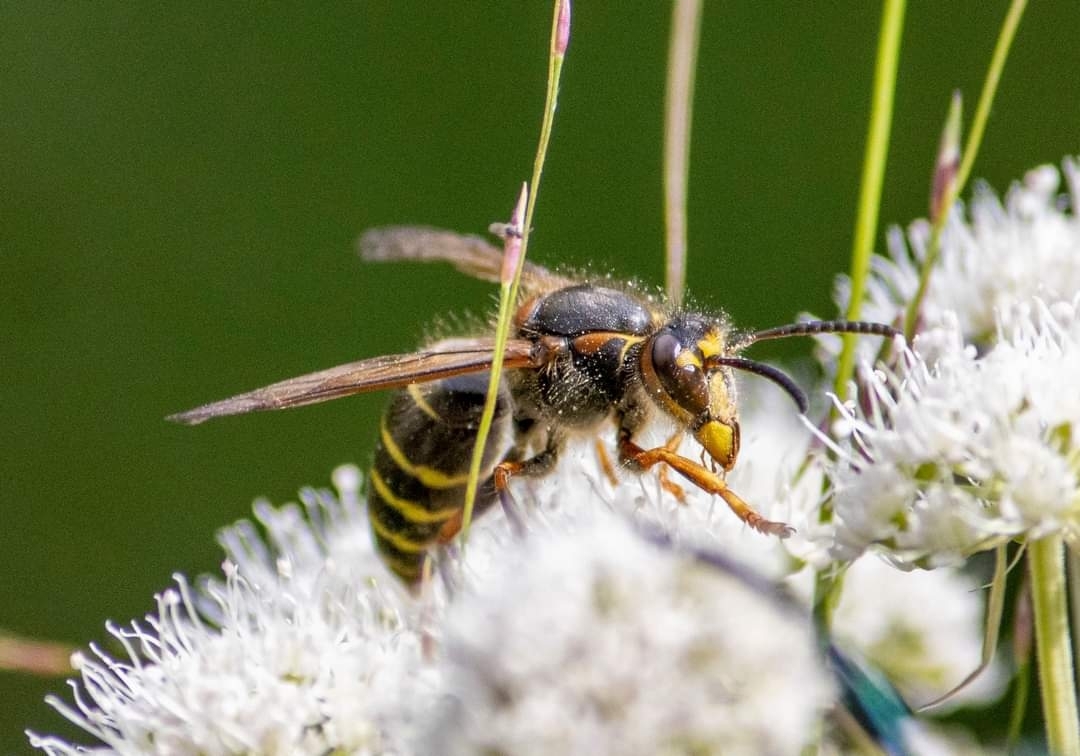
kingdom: Animalia
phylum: Arthropoda
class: Insecta
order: Hymenoptera
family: Vespidae
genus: Dolichovespula
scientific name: Dolichovespula media
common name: Median wasp
